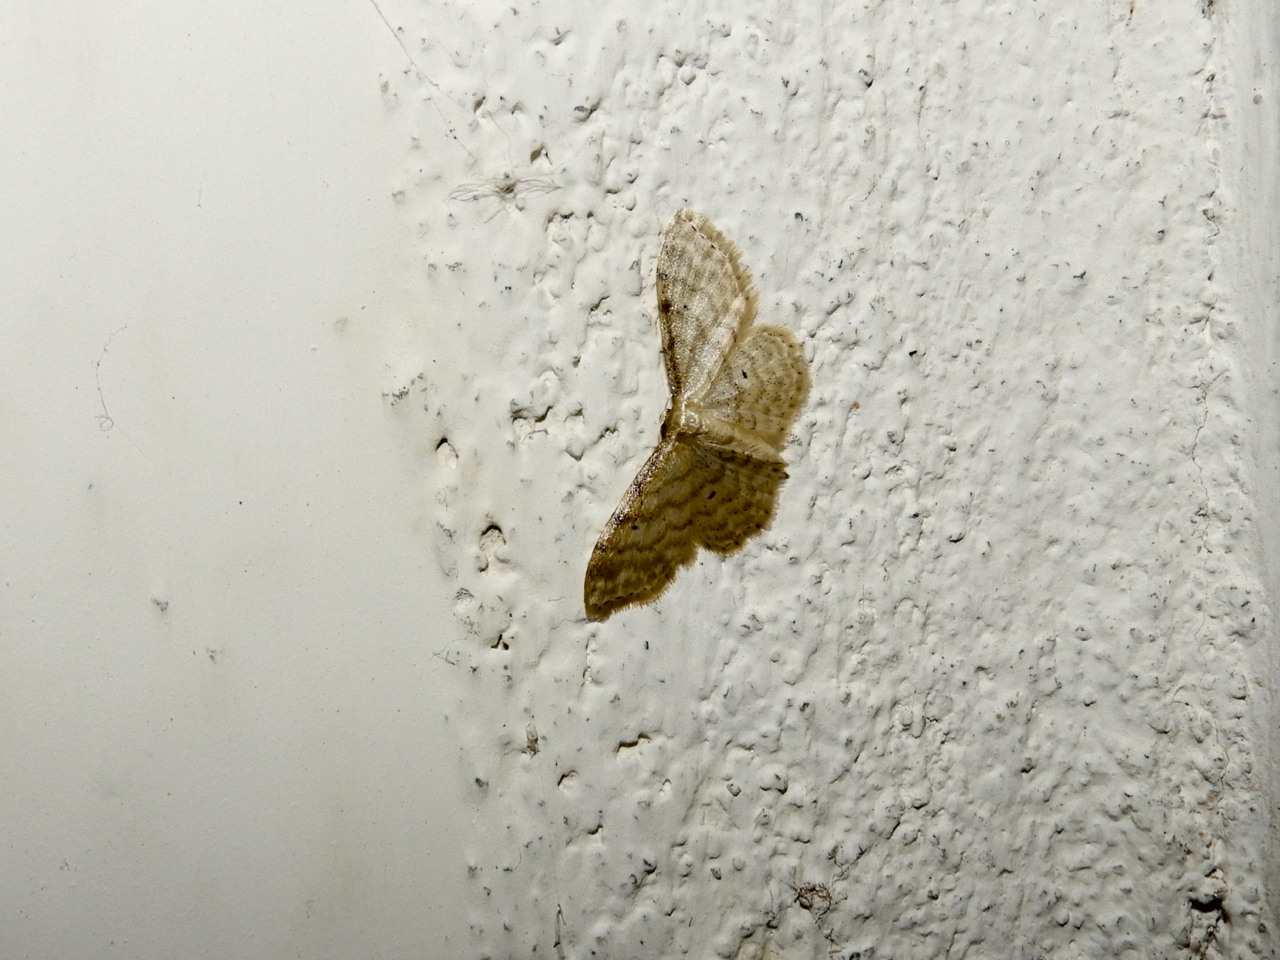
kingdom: Animalia
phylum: Arthropoda
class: Insecta
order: Lepidoptera
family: Geometridae
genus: Idaea
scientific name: Idaea fuscovenosa
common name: Dwarf cream wave
